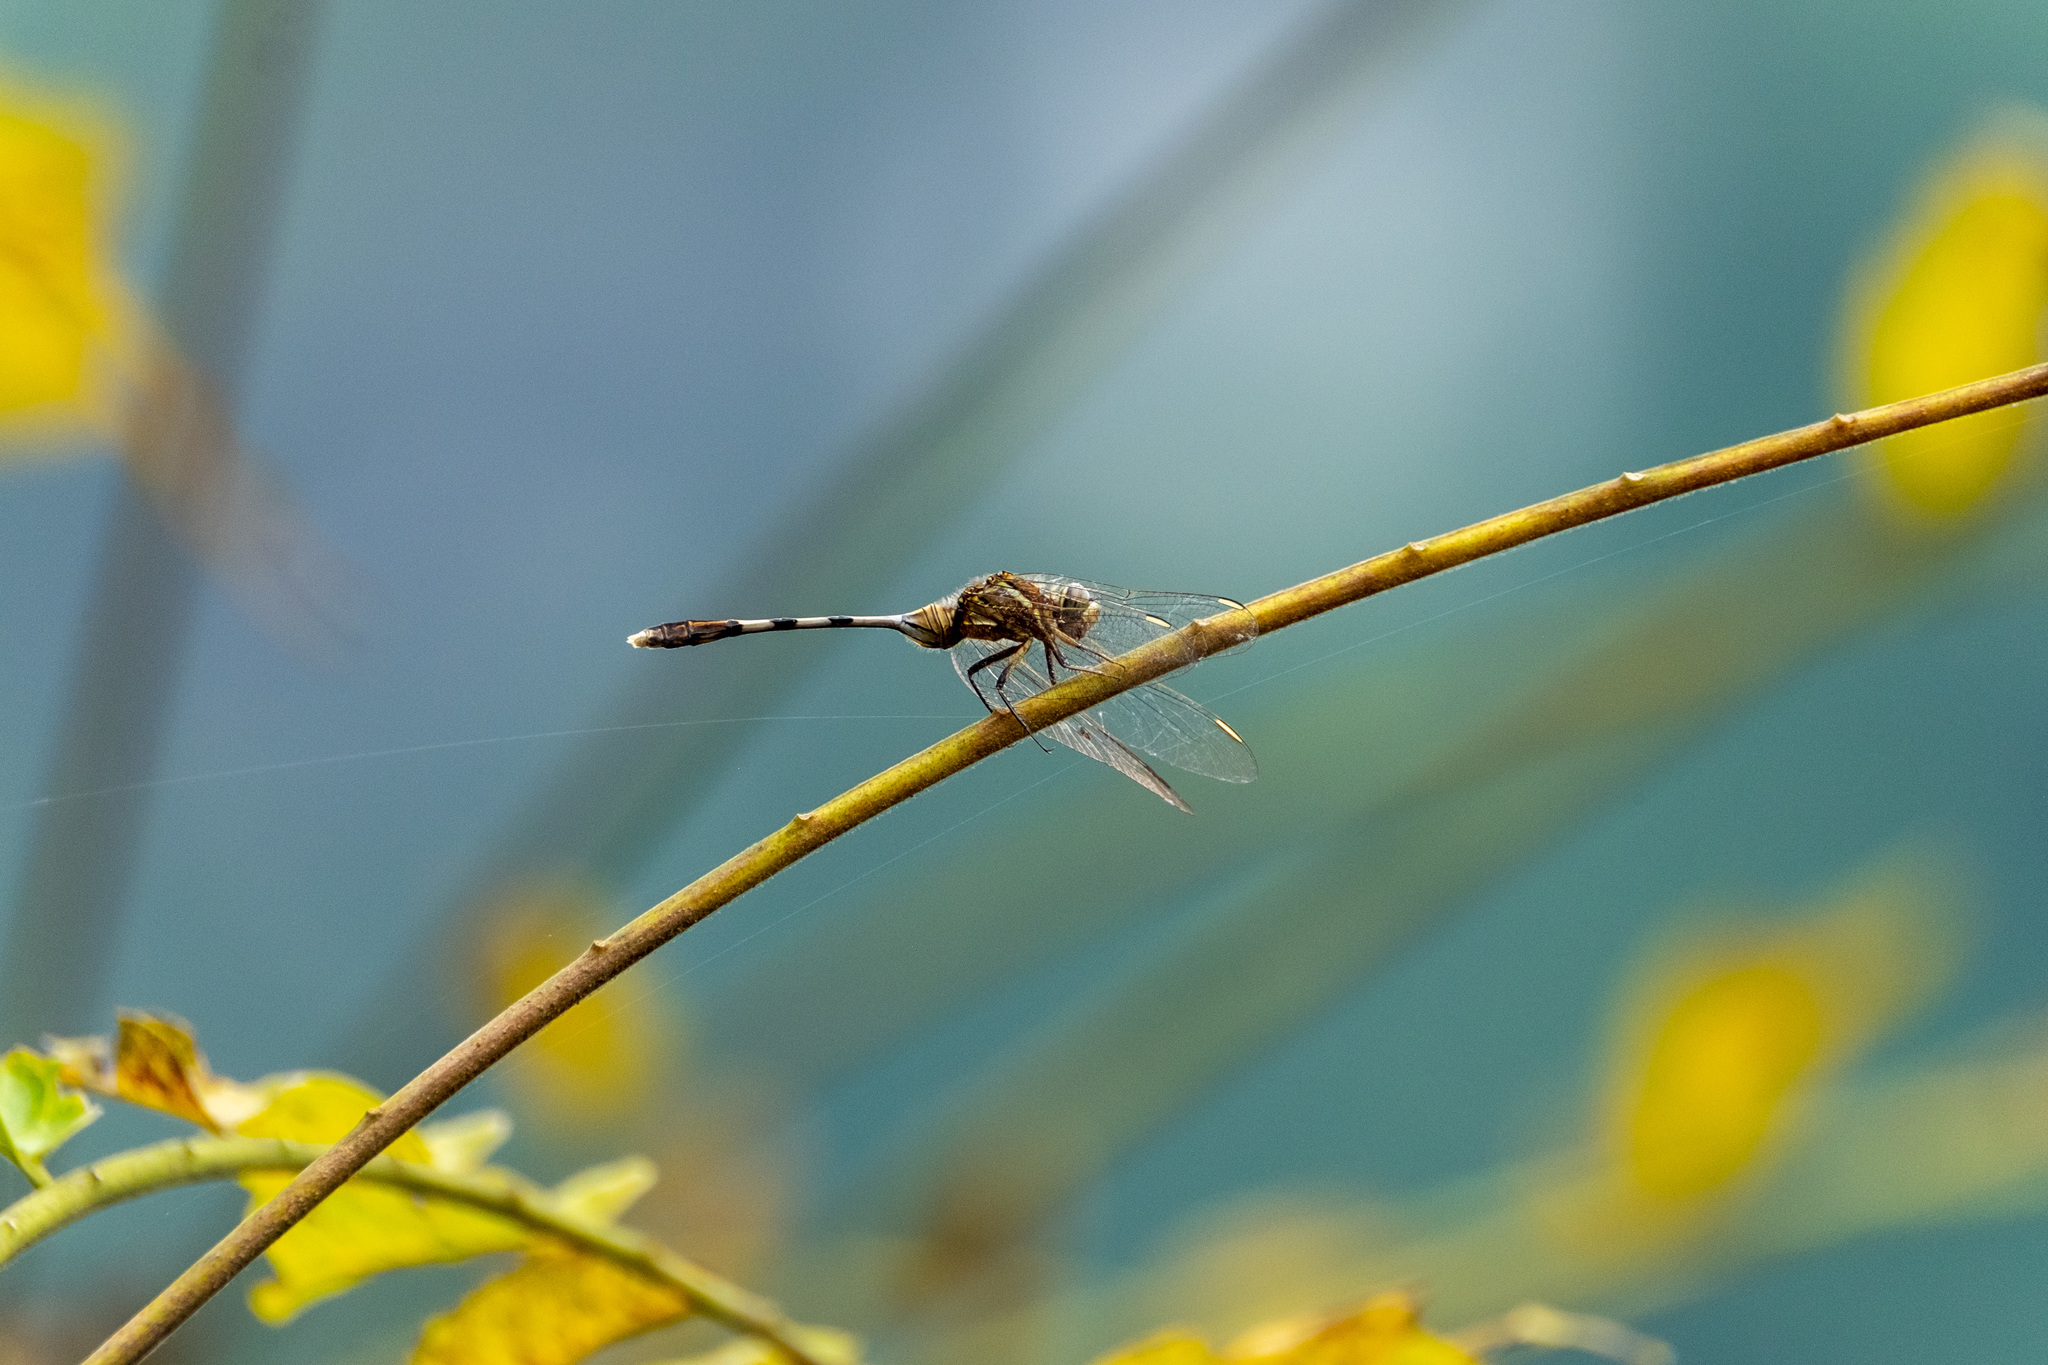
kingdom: Animalia
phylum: Arthropoda
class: Insecta
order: Odonata
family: Libellulidae
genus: Orthetrum
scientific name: Orthetrum sabina
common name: Slender skimmer
